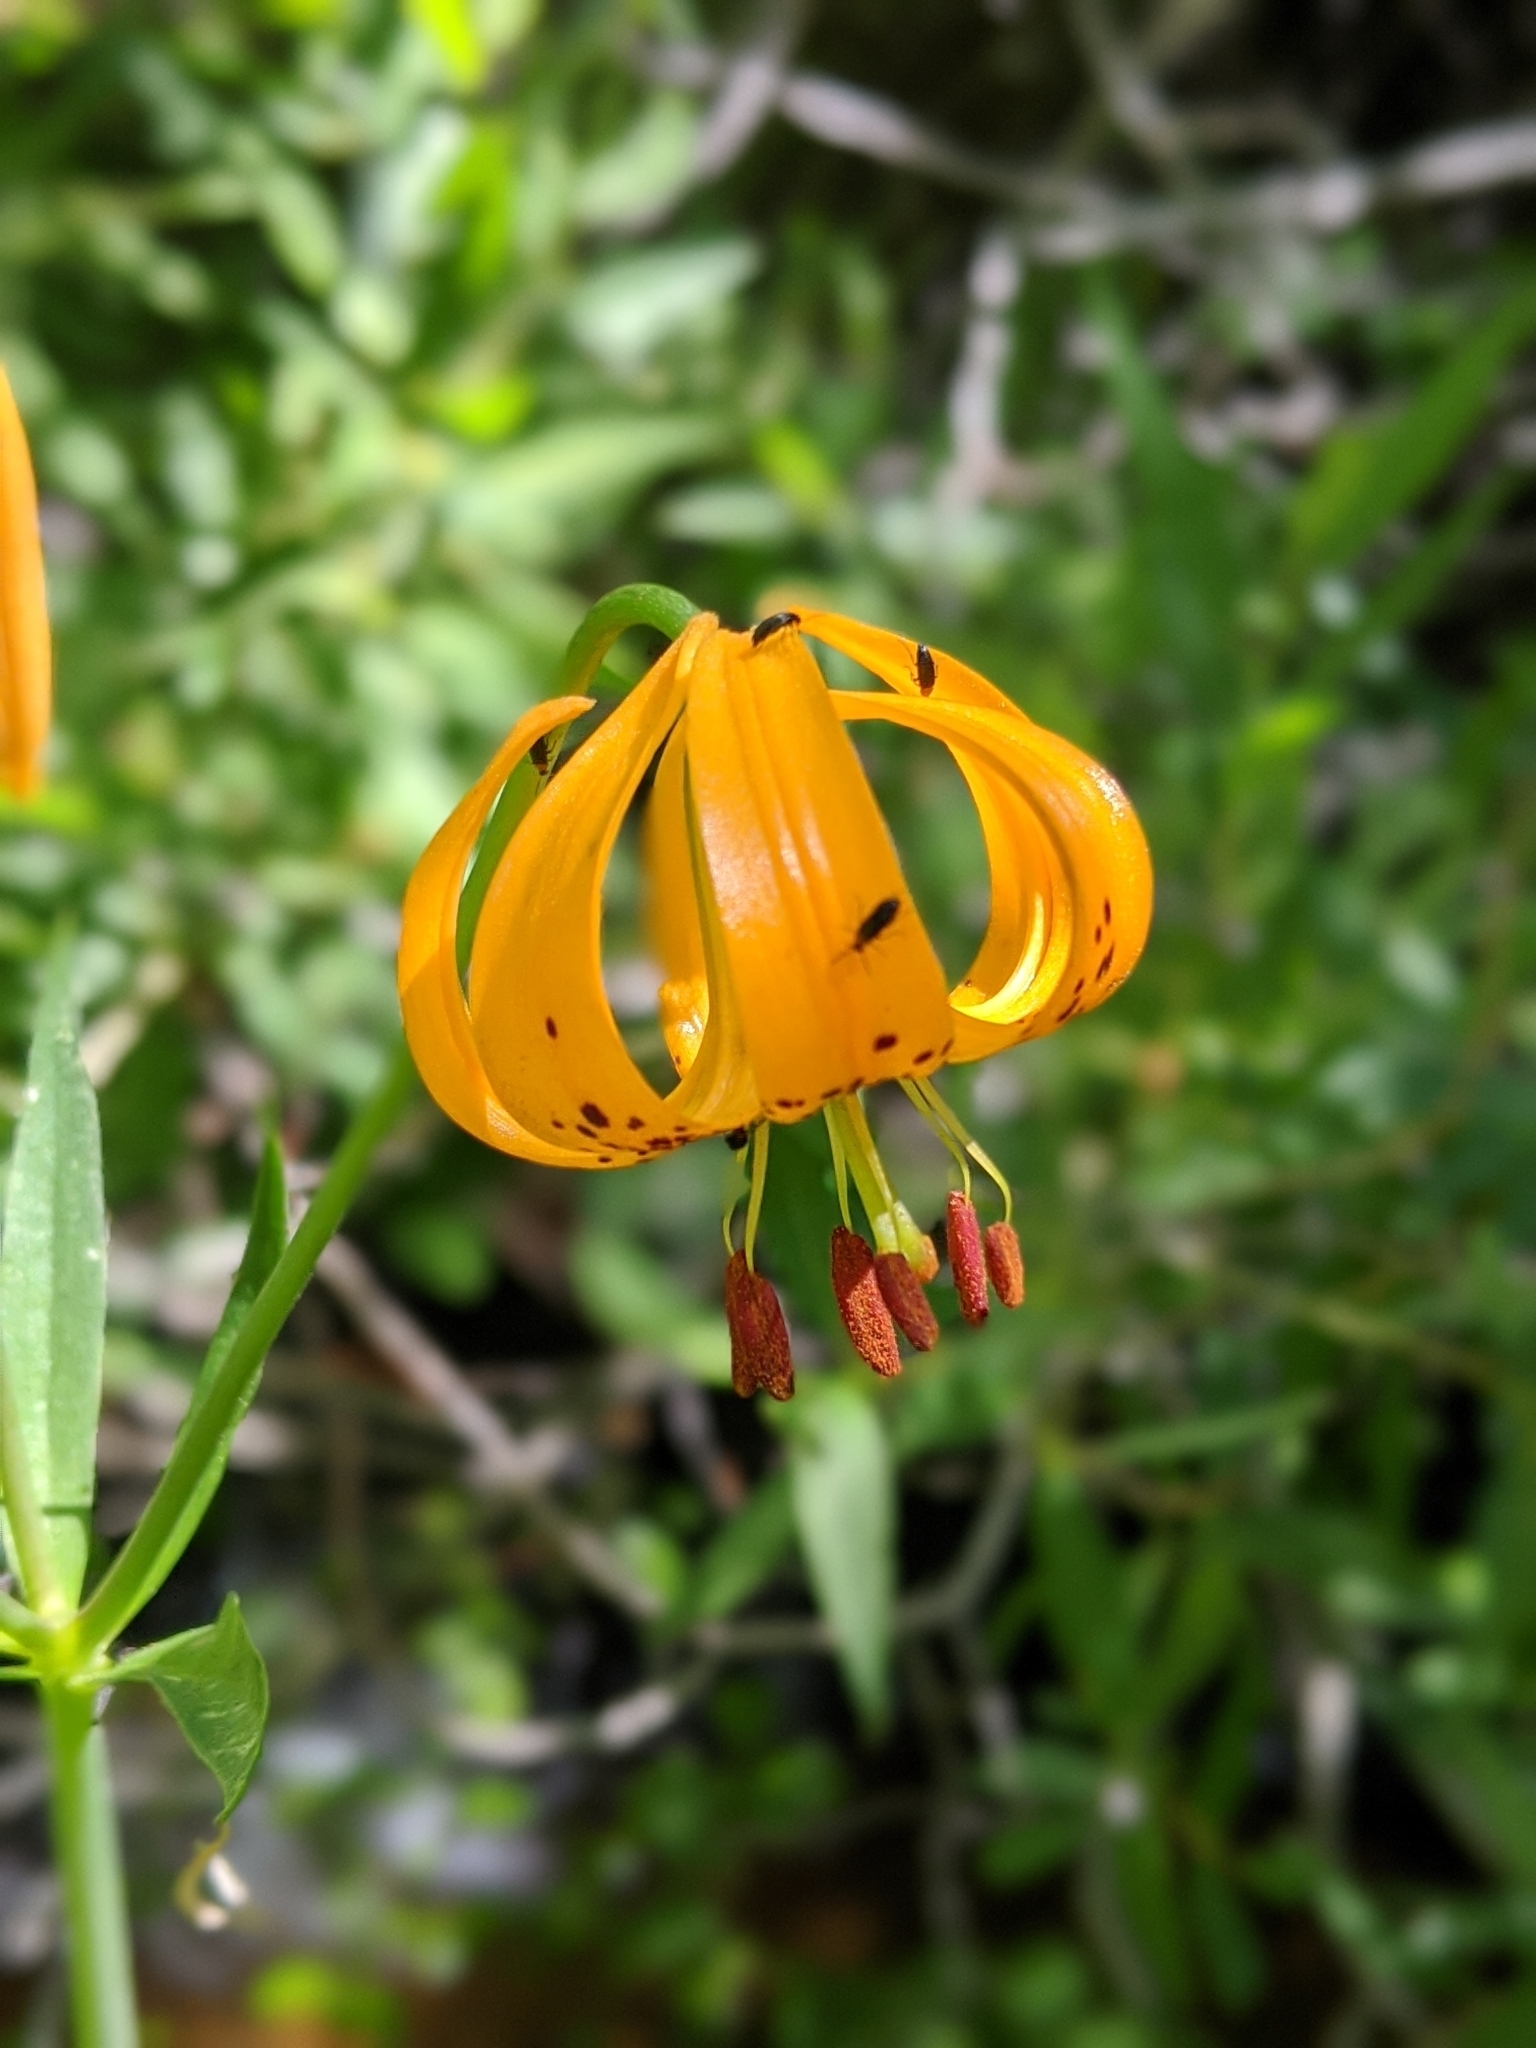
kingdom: Plantae
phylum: Tracheophyta
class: Liliopsida
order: Liliales
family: Liliaceae
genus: Lilium
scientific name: Lilium kelleyanum
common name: Kelley's lily
